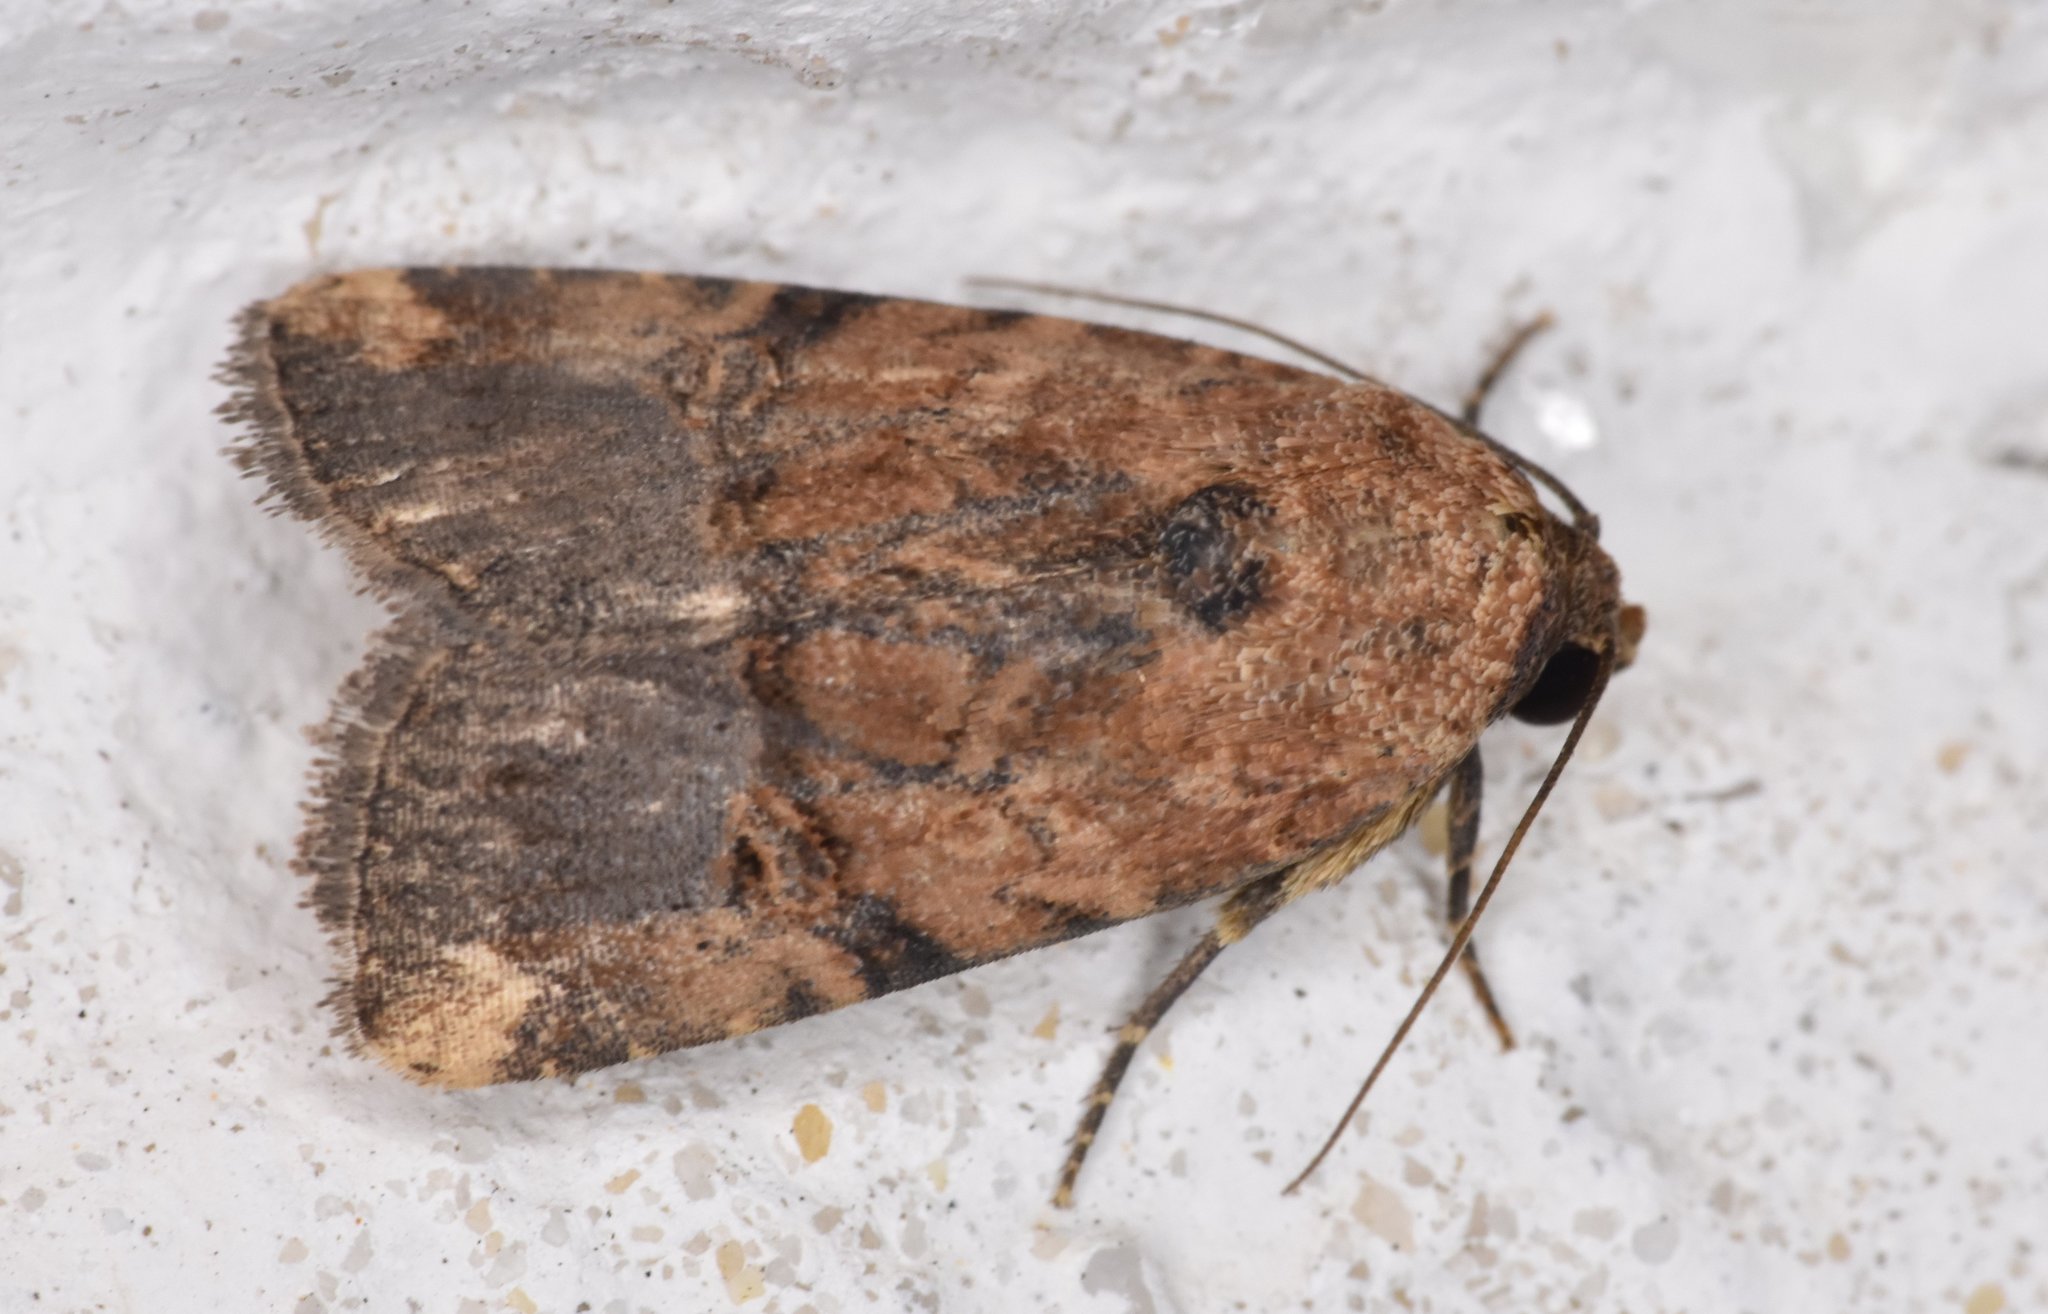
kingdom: Animalia
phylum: Arthropoda
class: Insecta
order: Lepidoptera
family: Noctuidae
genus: Elaphria
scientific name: Elaphria chalcedonia
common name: Chalcedony midget
